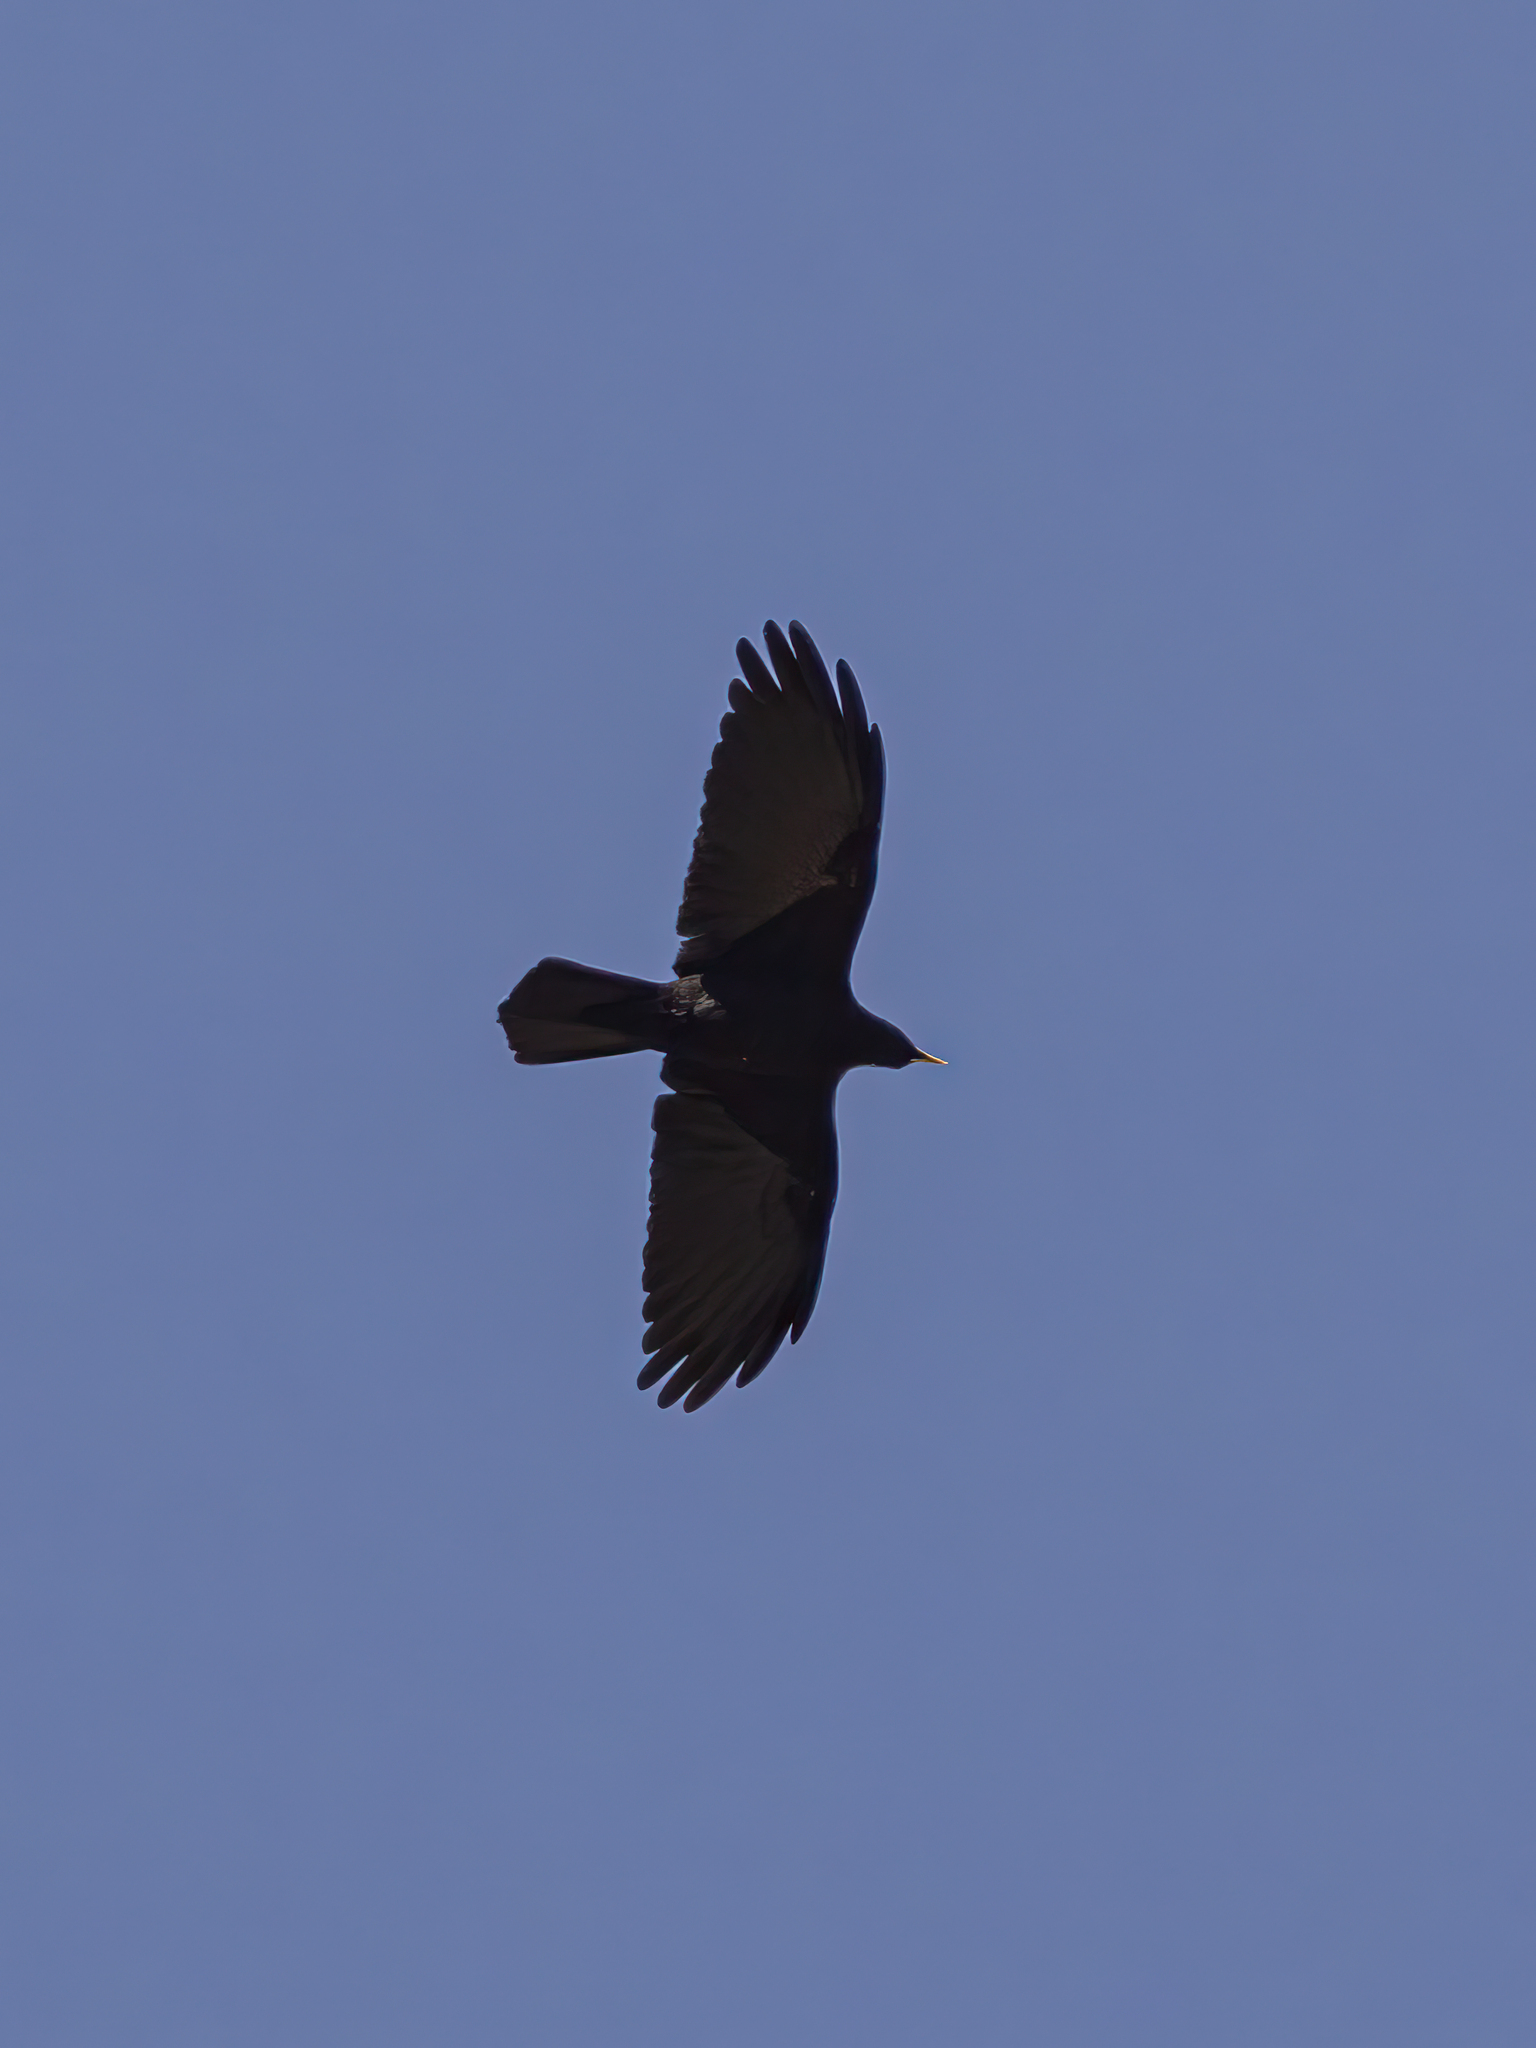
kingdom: Animalia
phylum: Chordata
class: Aves
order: Passeriformes
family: Corvidae
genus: Pyrrhocorax
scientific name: Pyrrhocorax graculus
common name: Alpine chough
